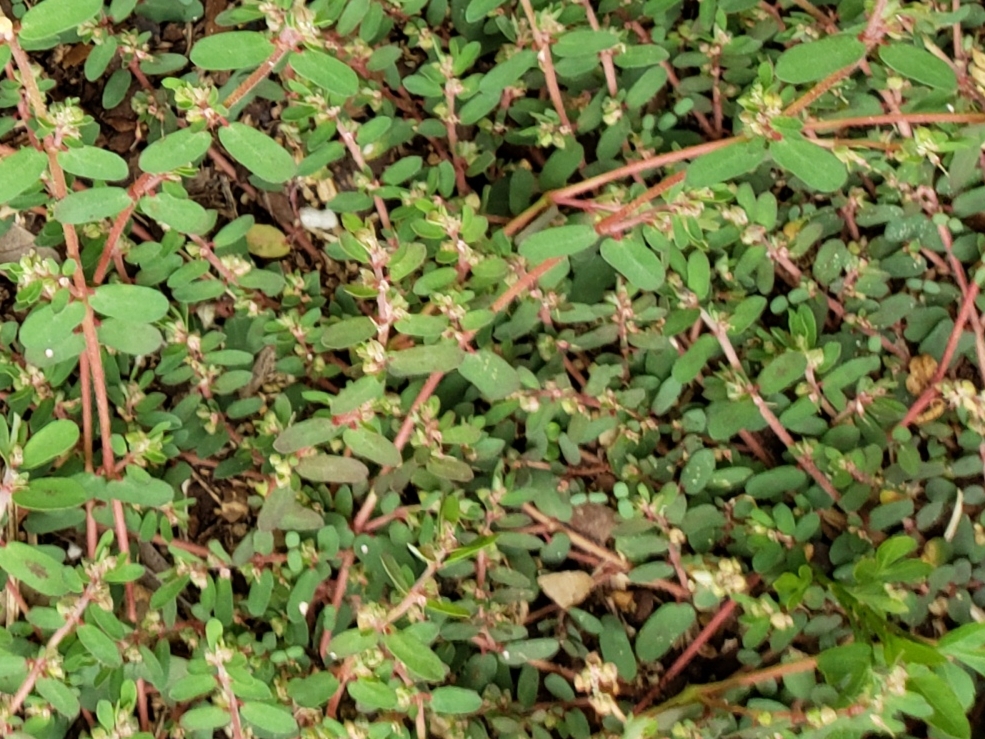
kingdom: Plantae
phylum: Tracheophyta
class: Magnoliopsida
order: Malpighiales
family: Euphorbiaceae
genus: Euphorbia
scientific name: Euphorbia maculata
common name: Spotted spurge
